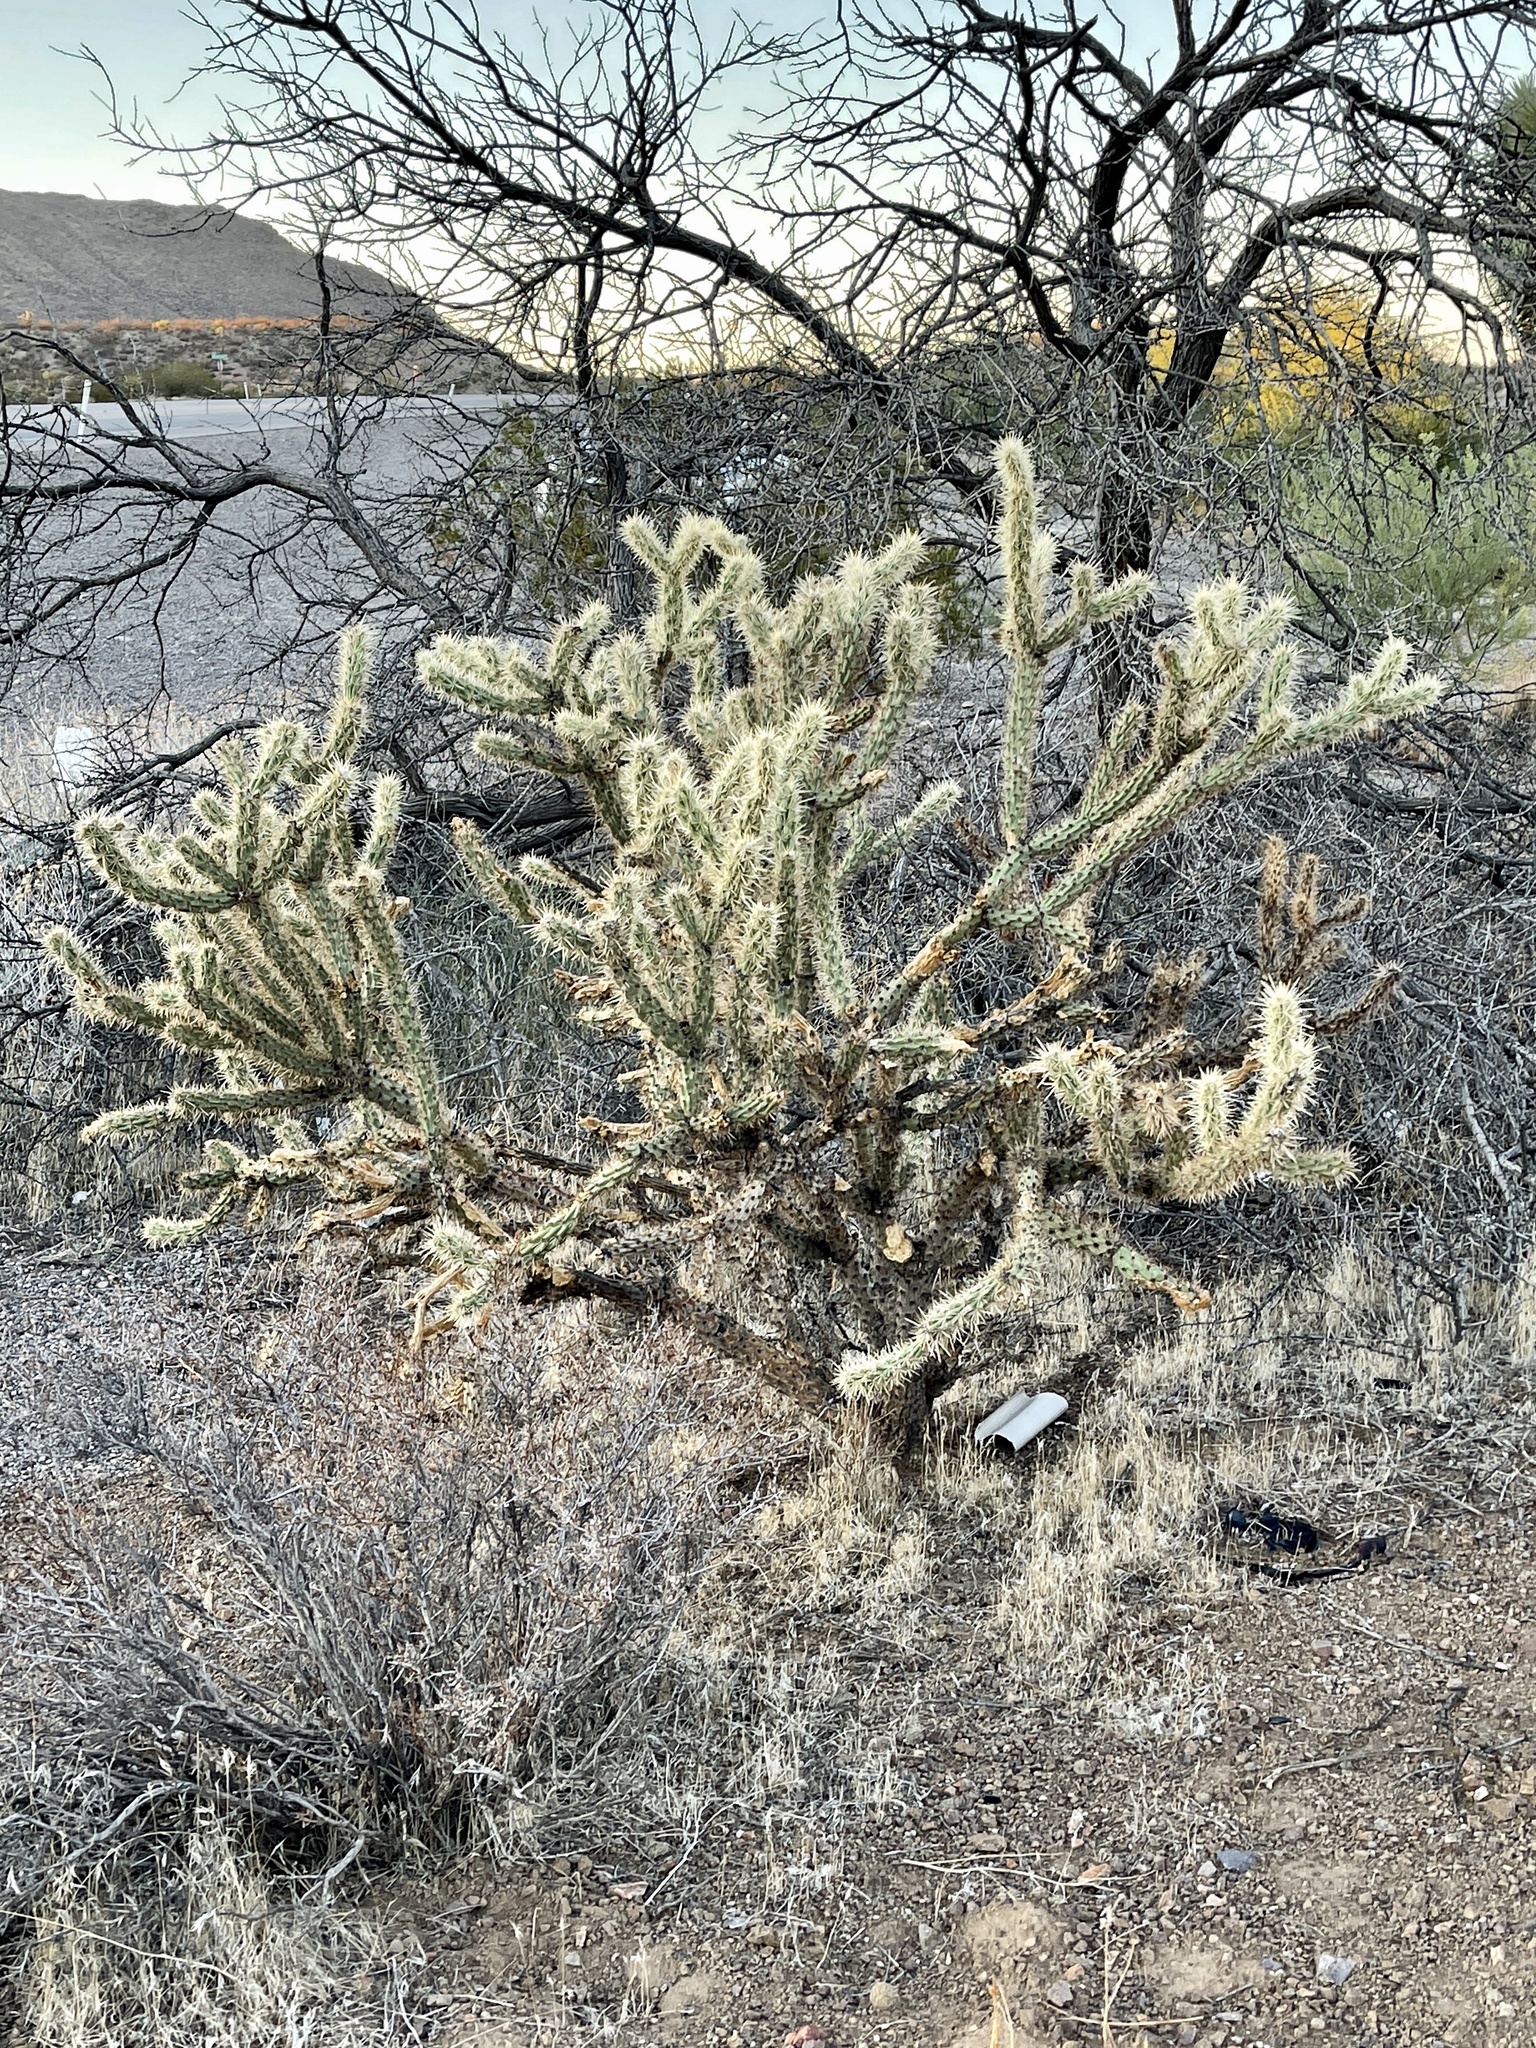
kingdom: Plantae
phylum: Tracheophyta
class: Magnoliopsida
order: Caryophyllales
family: Cactaceae
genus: Cylindropuntia
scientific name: Cylindropuntia acanthocarpa
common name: Buckhorn cholla
